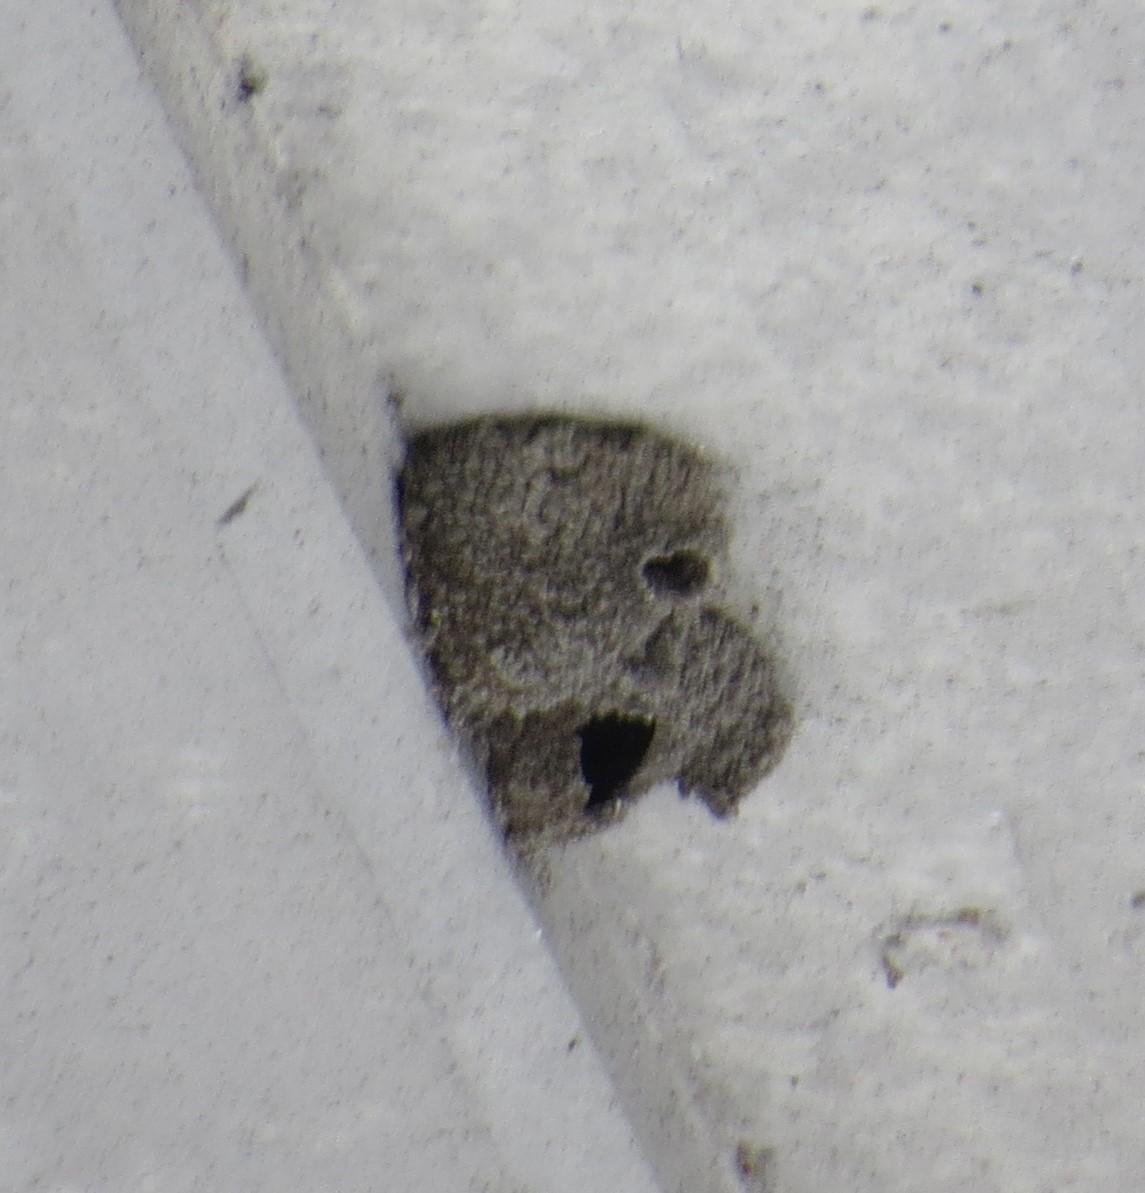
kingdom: Animalia
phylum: Chordata
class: Aves
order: Passeriformes
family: Hirundinidae
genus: Petrochelidon
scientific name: Petrochelidon pyrrhonota
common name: American cliff swallow
